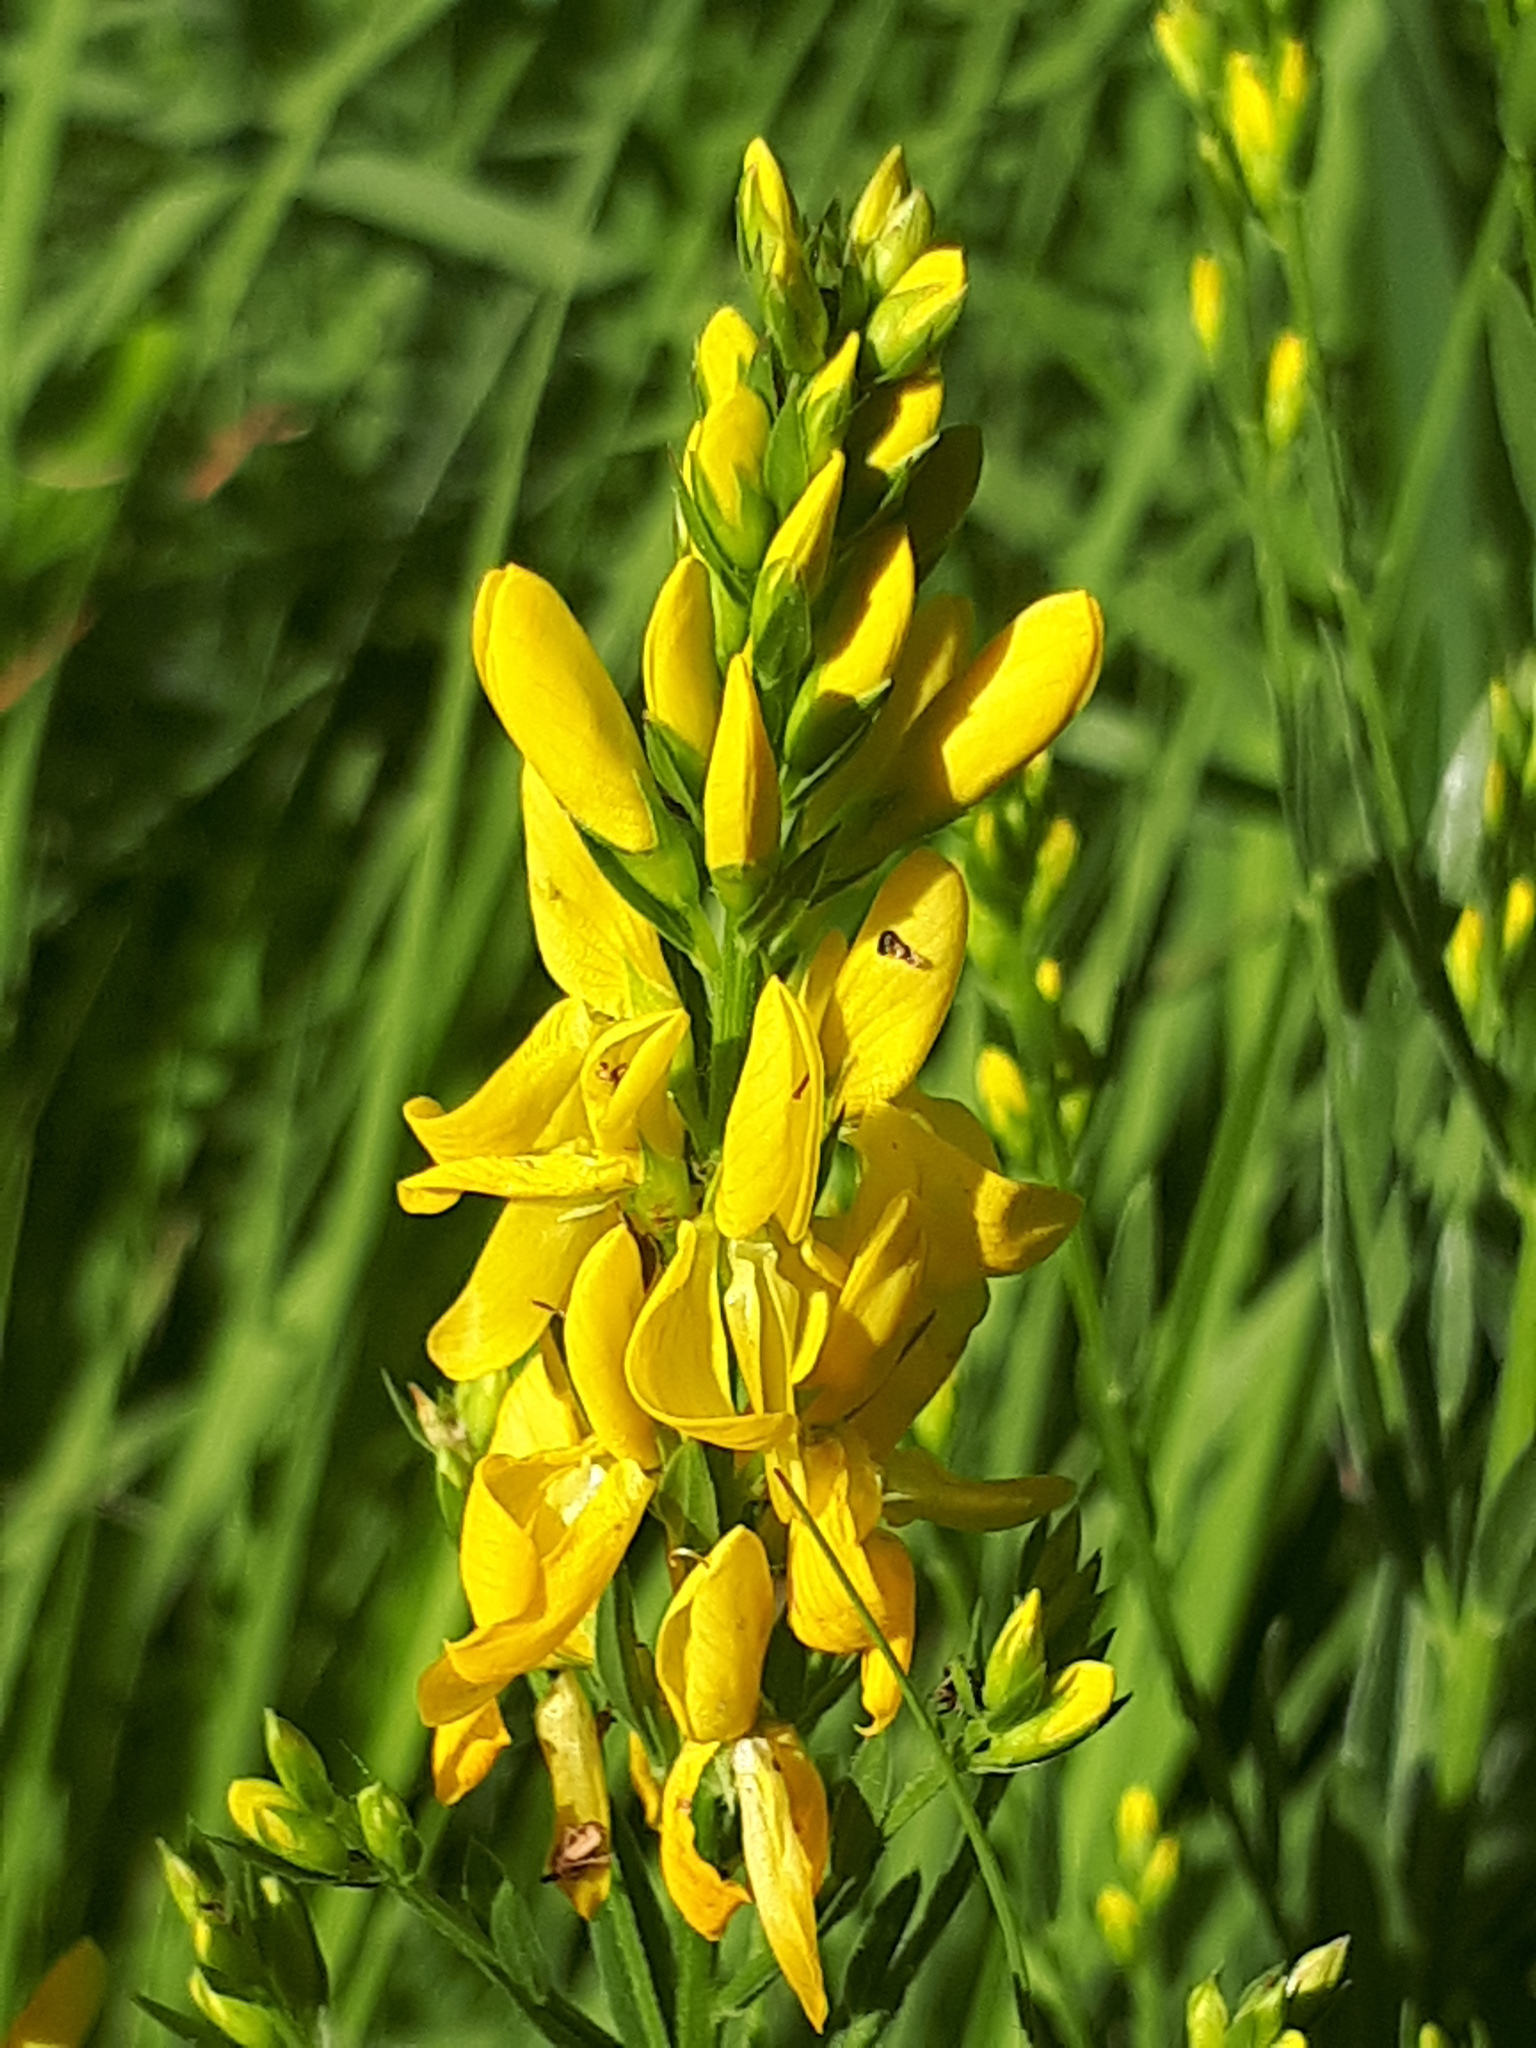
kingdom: Plantae
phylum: Tracheophyta
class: Magnoliopsida
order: Fabales
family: Fabaceae
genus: Genista
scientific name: Genista tinctoria
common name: Dyer's greenweed
